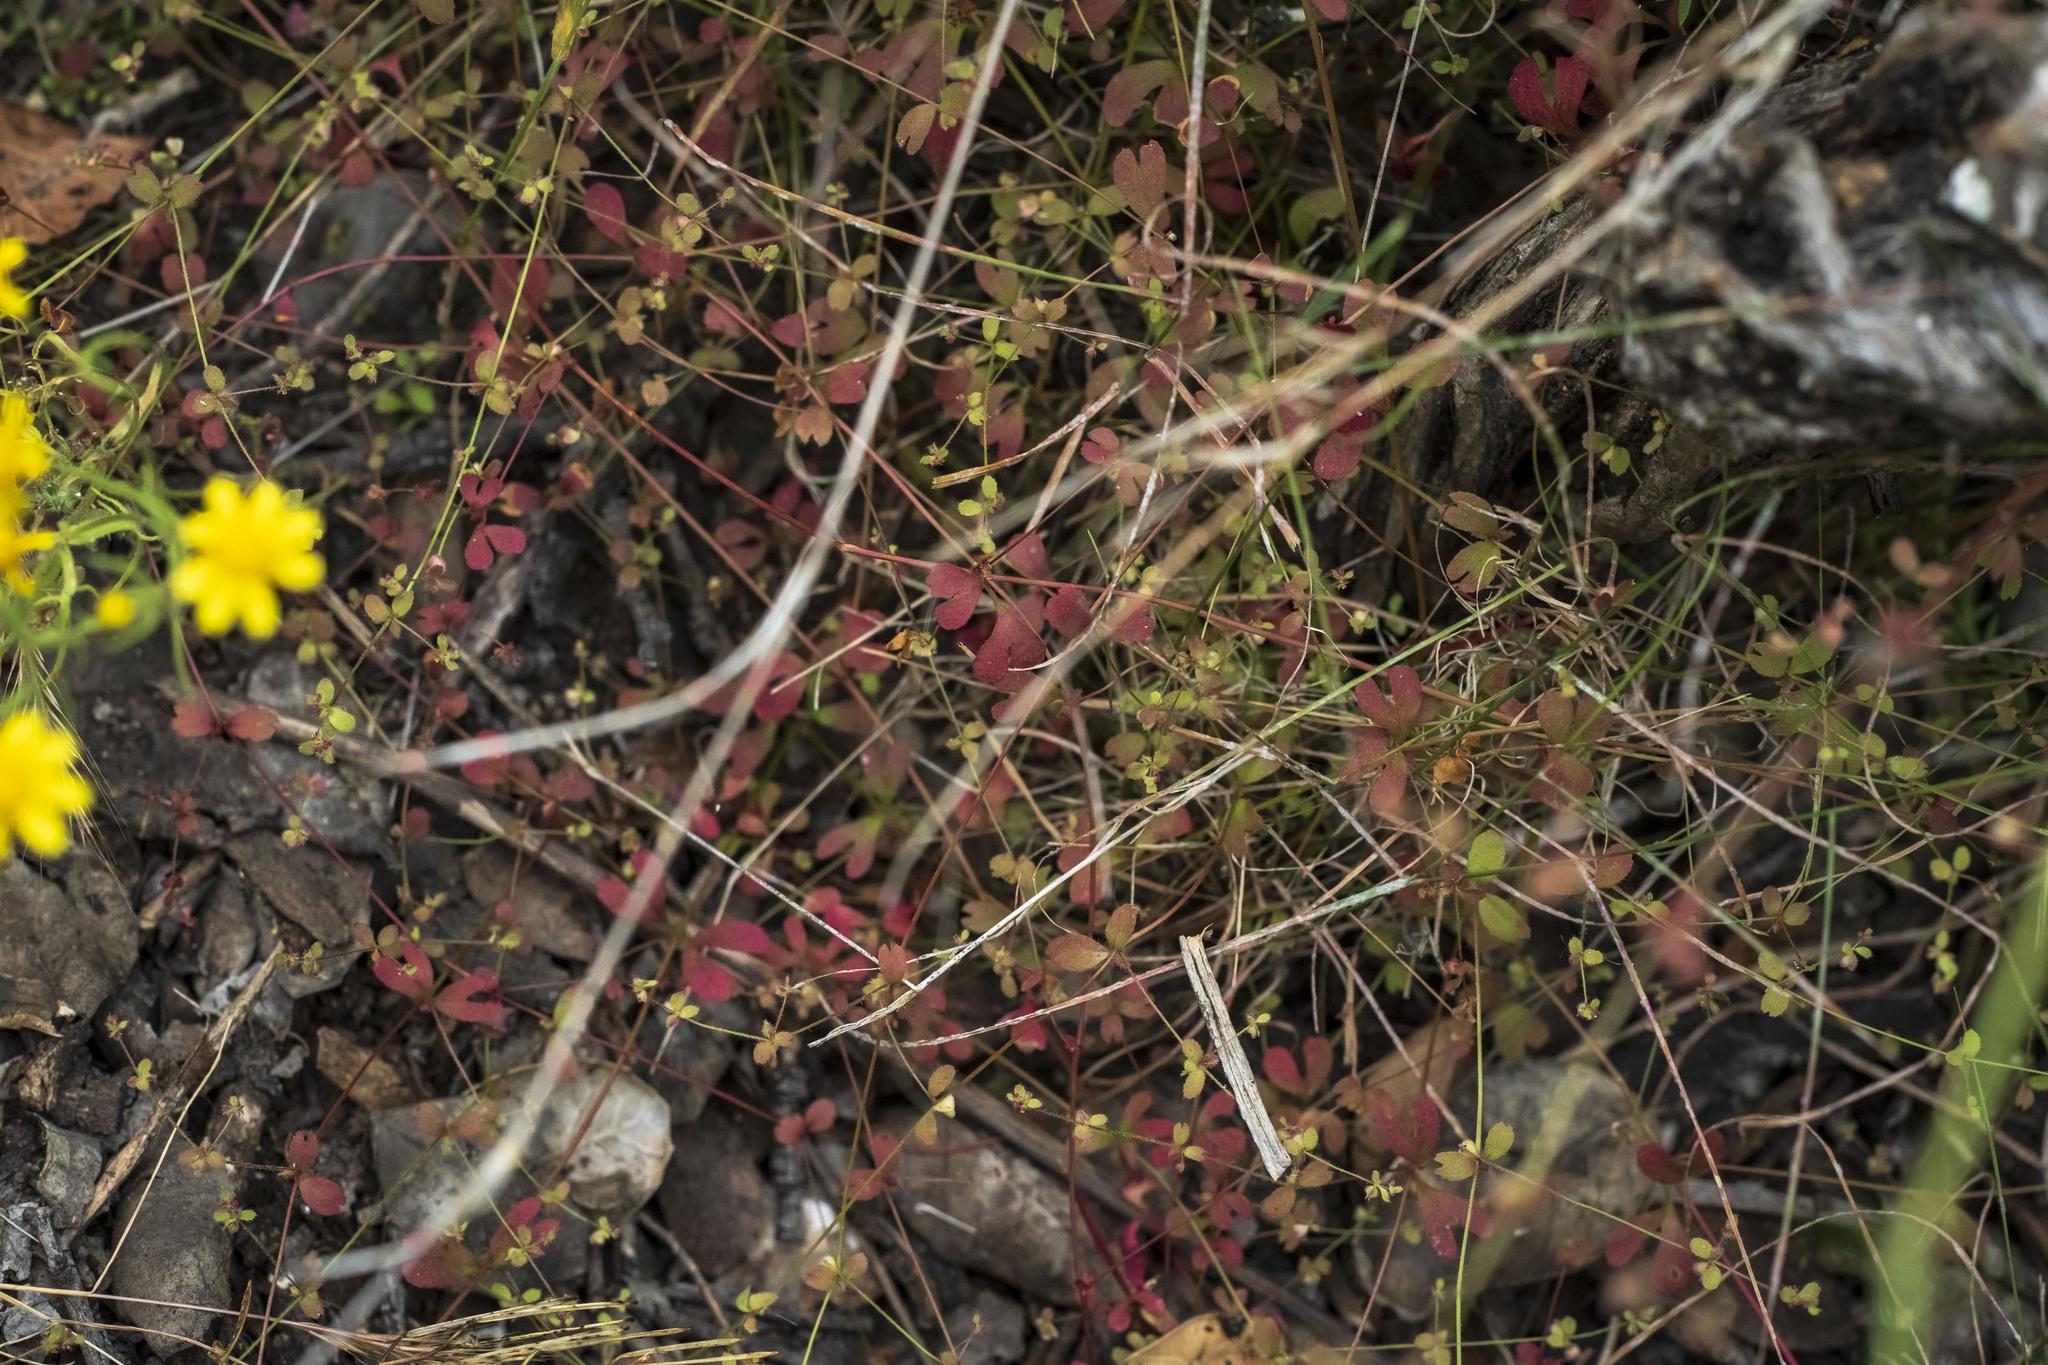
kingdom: Plantae
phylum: Tracheophyta
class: Magnoliopsida
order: Caryophyllales
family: Polygonaceae
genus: Pterostegia
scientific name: Pterostegia drymarioides
